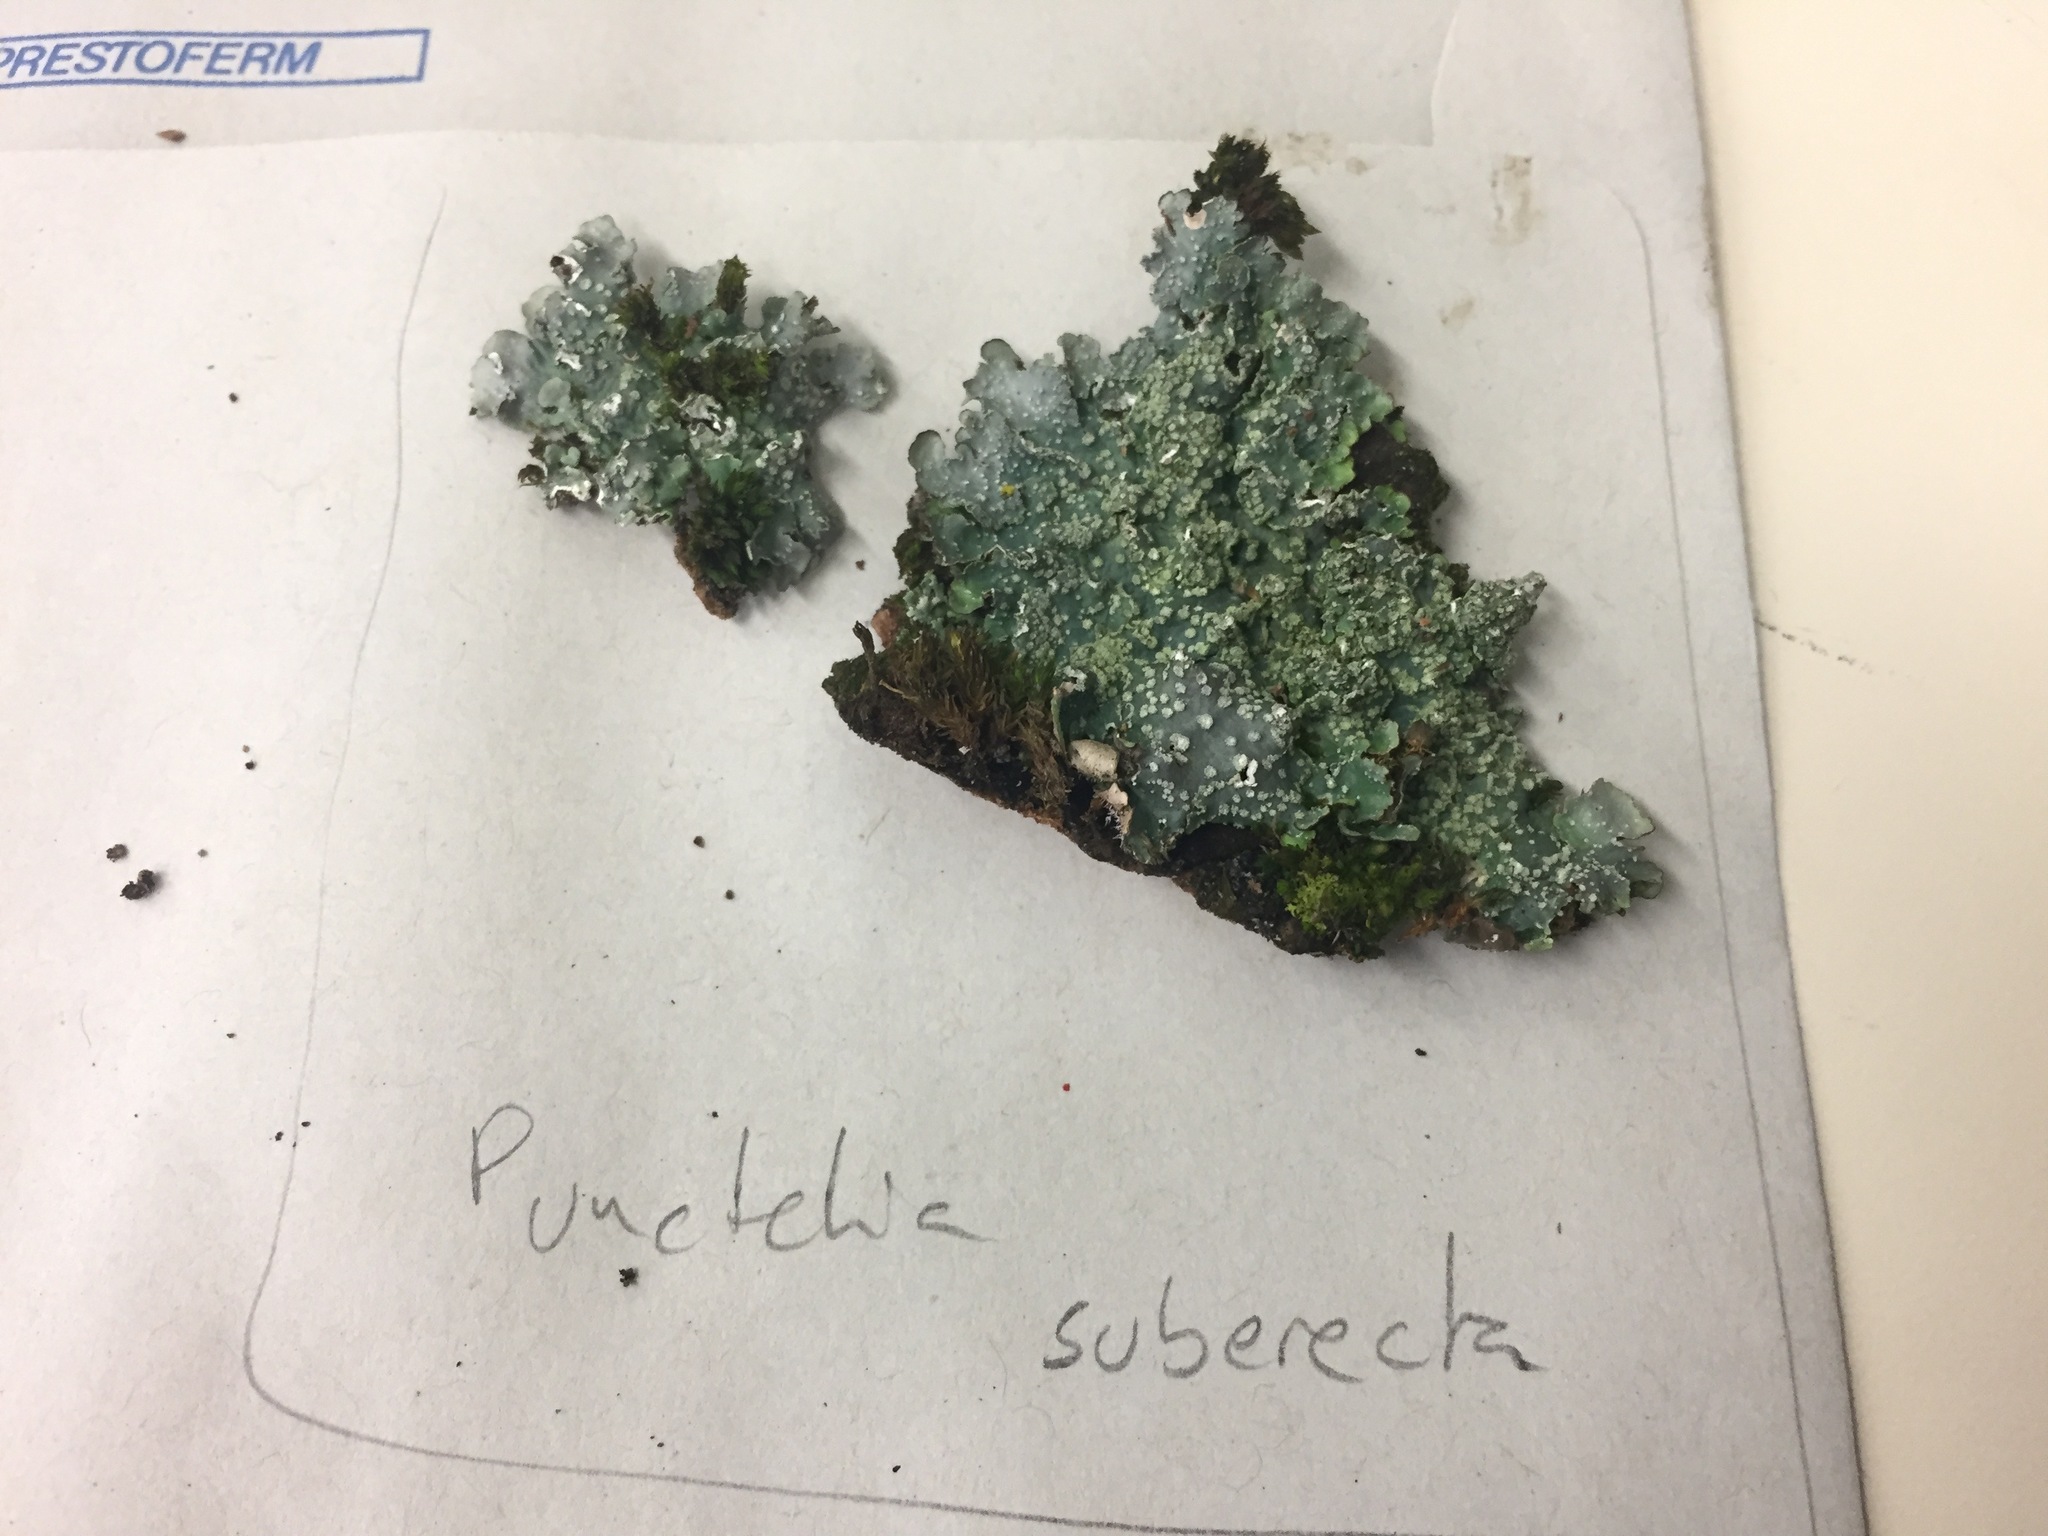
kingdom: Fungi
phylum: Ascomycota
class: Lecanoromycetes
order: Lecanorales
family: Parmeliaceae
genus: Punctelia
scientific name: Punctelia subrudecta
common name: Powdered speckled shield lichen
